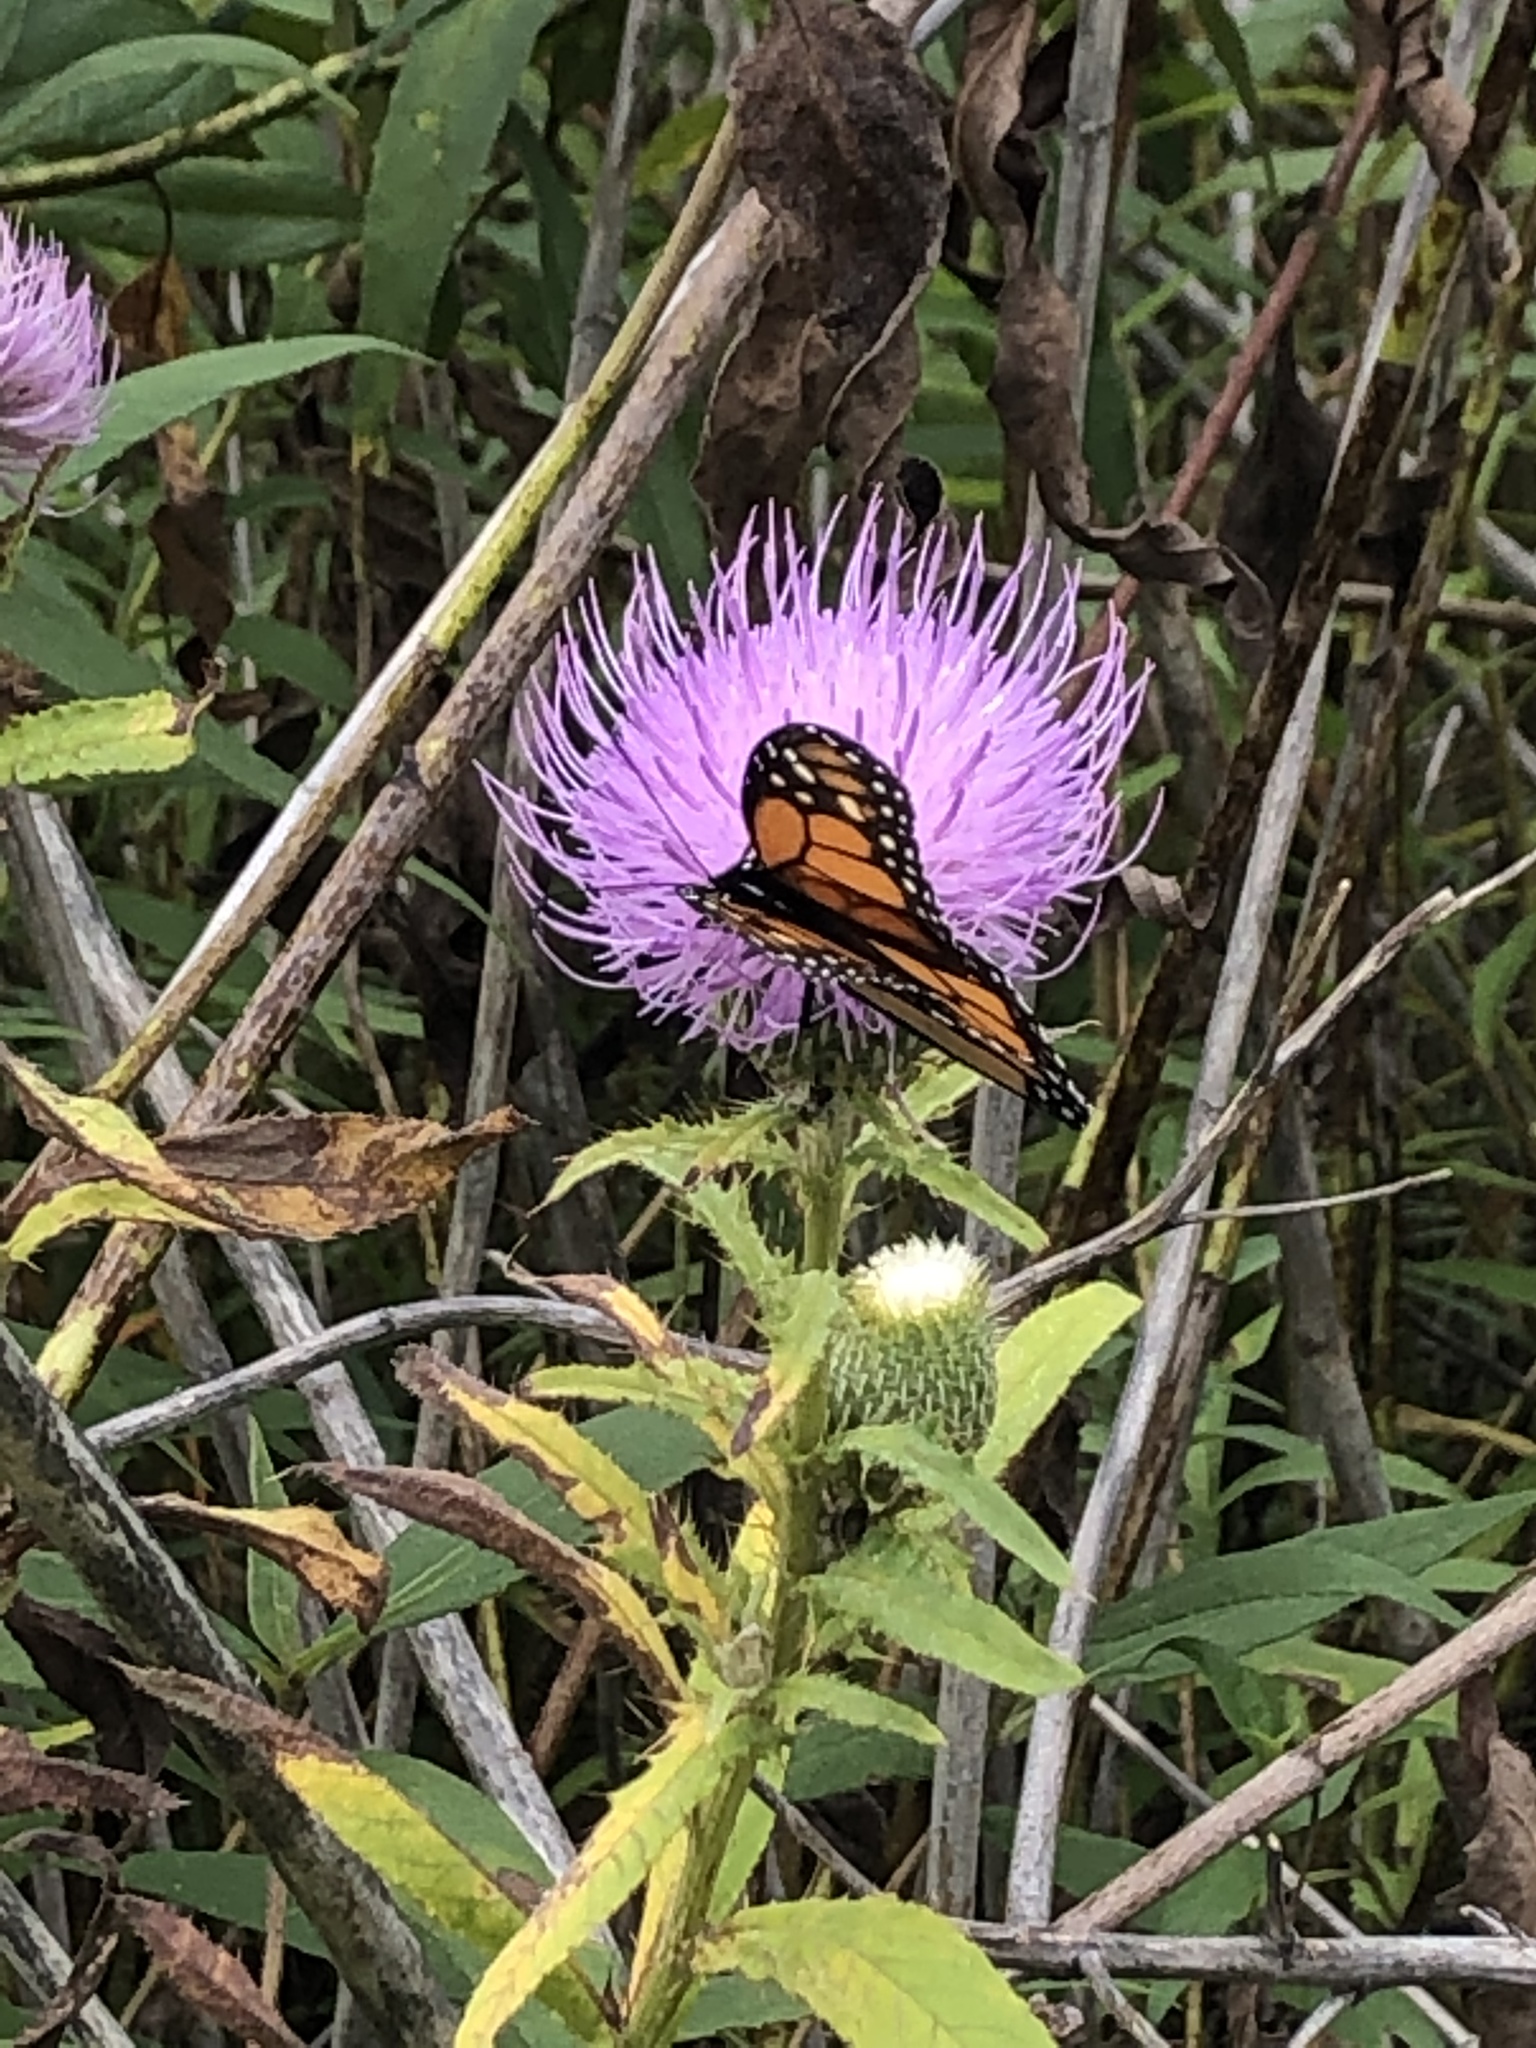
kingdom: Animalia
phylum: Arthropoda
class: Insecta
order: Lepidoptera
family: Nymphalidae
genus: Danaus
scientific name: Danaus plexippus
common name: Monarch
